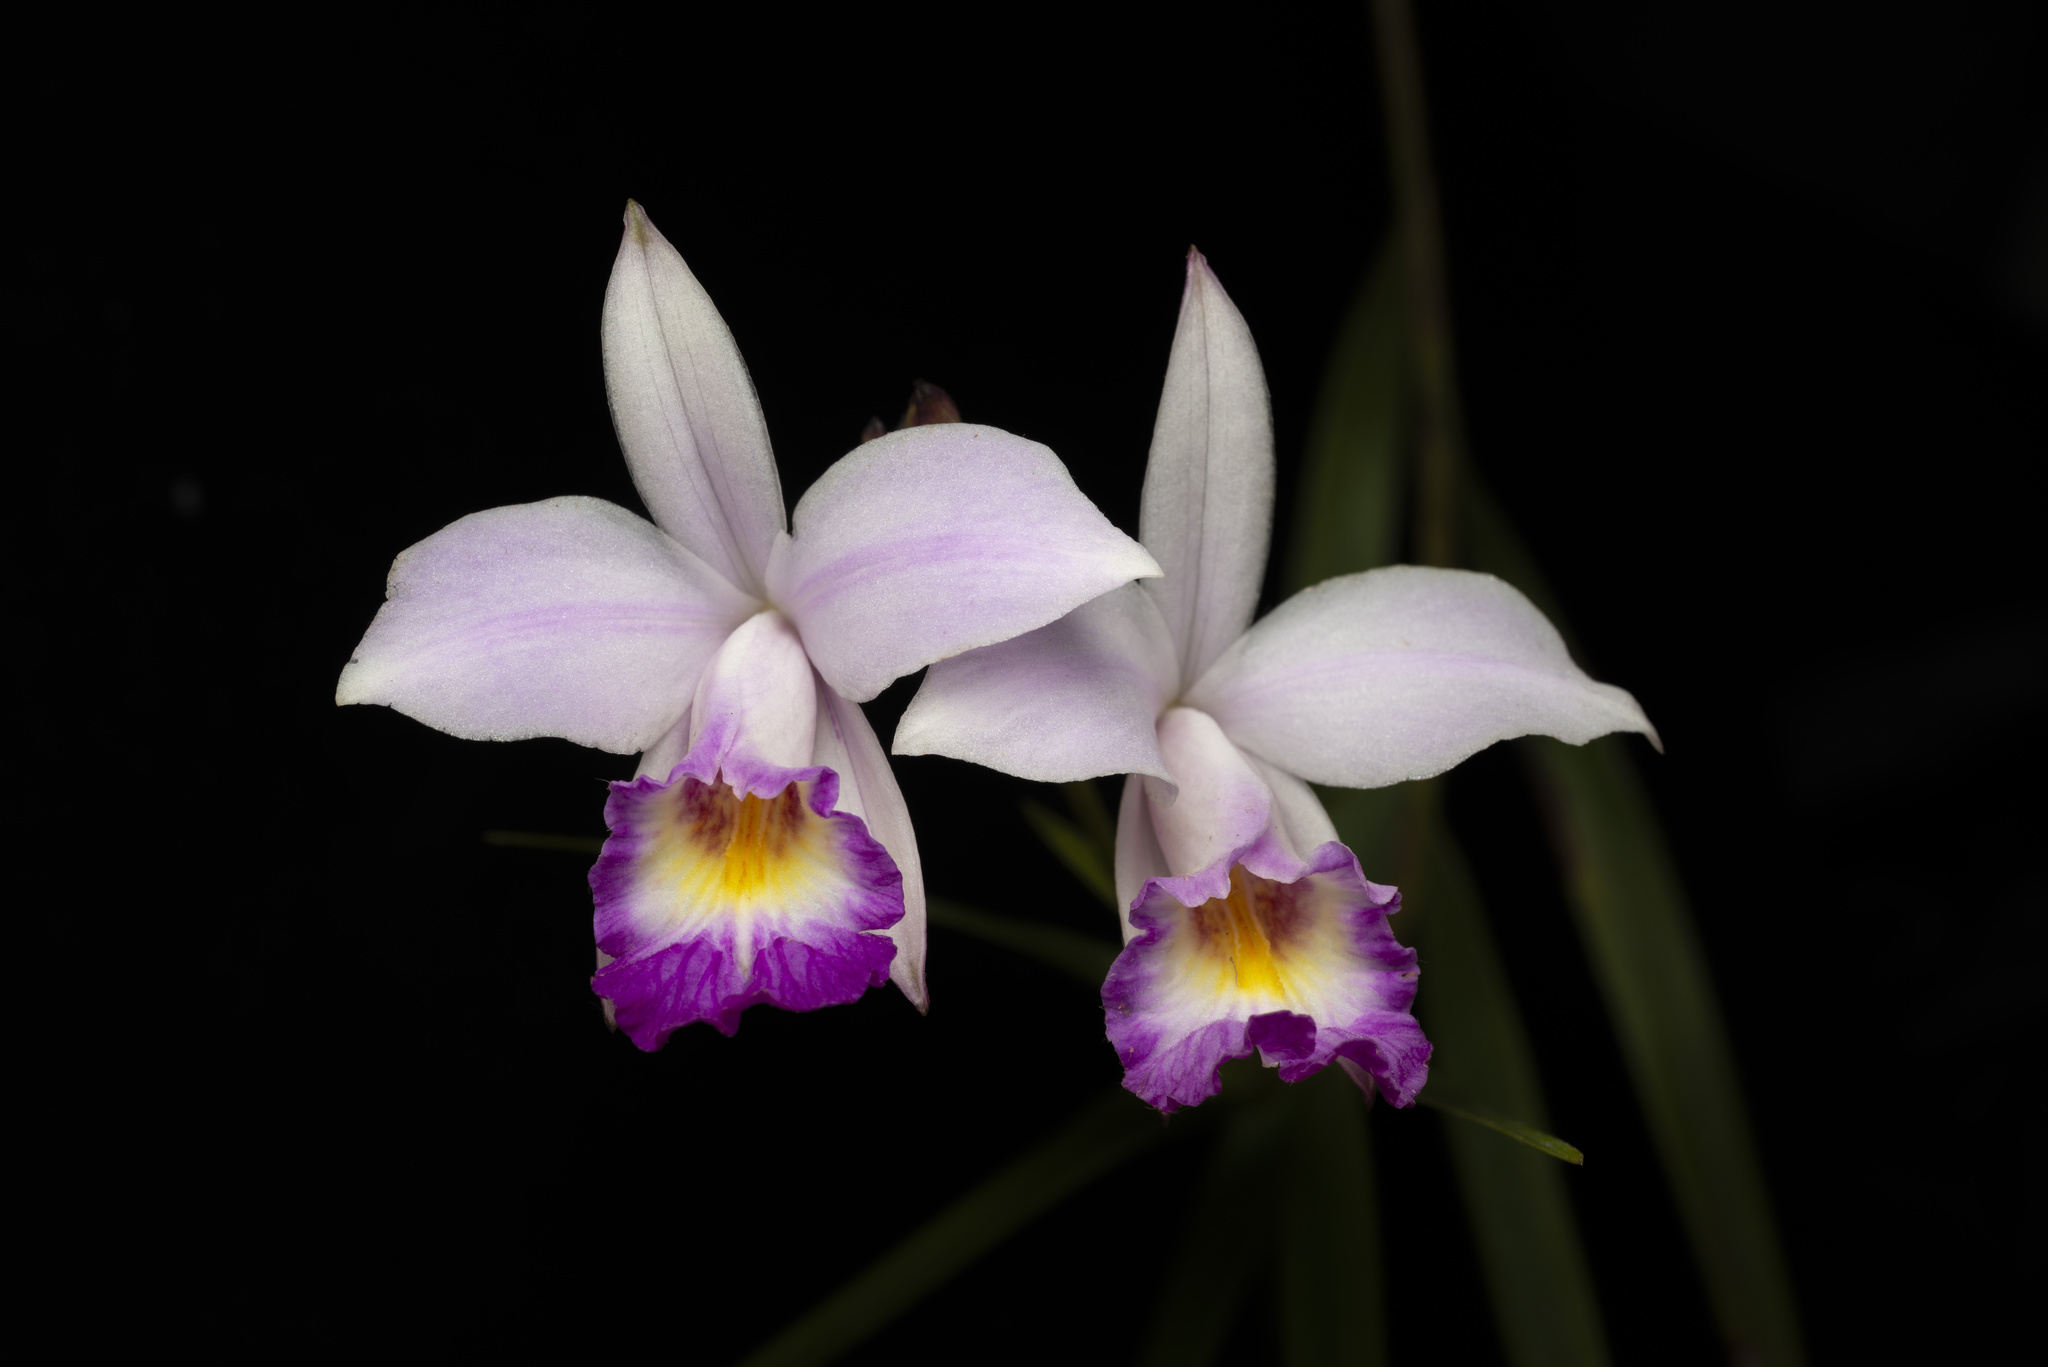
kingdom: Plantae
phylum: Tracheophyta
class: Liliopsida
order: Asparagales
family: Orchidaceae
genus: Arundina
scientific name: Arundina graminifolia
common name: Bamboo orchid
